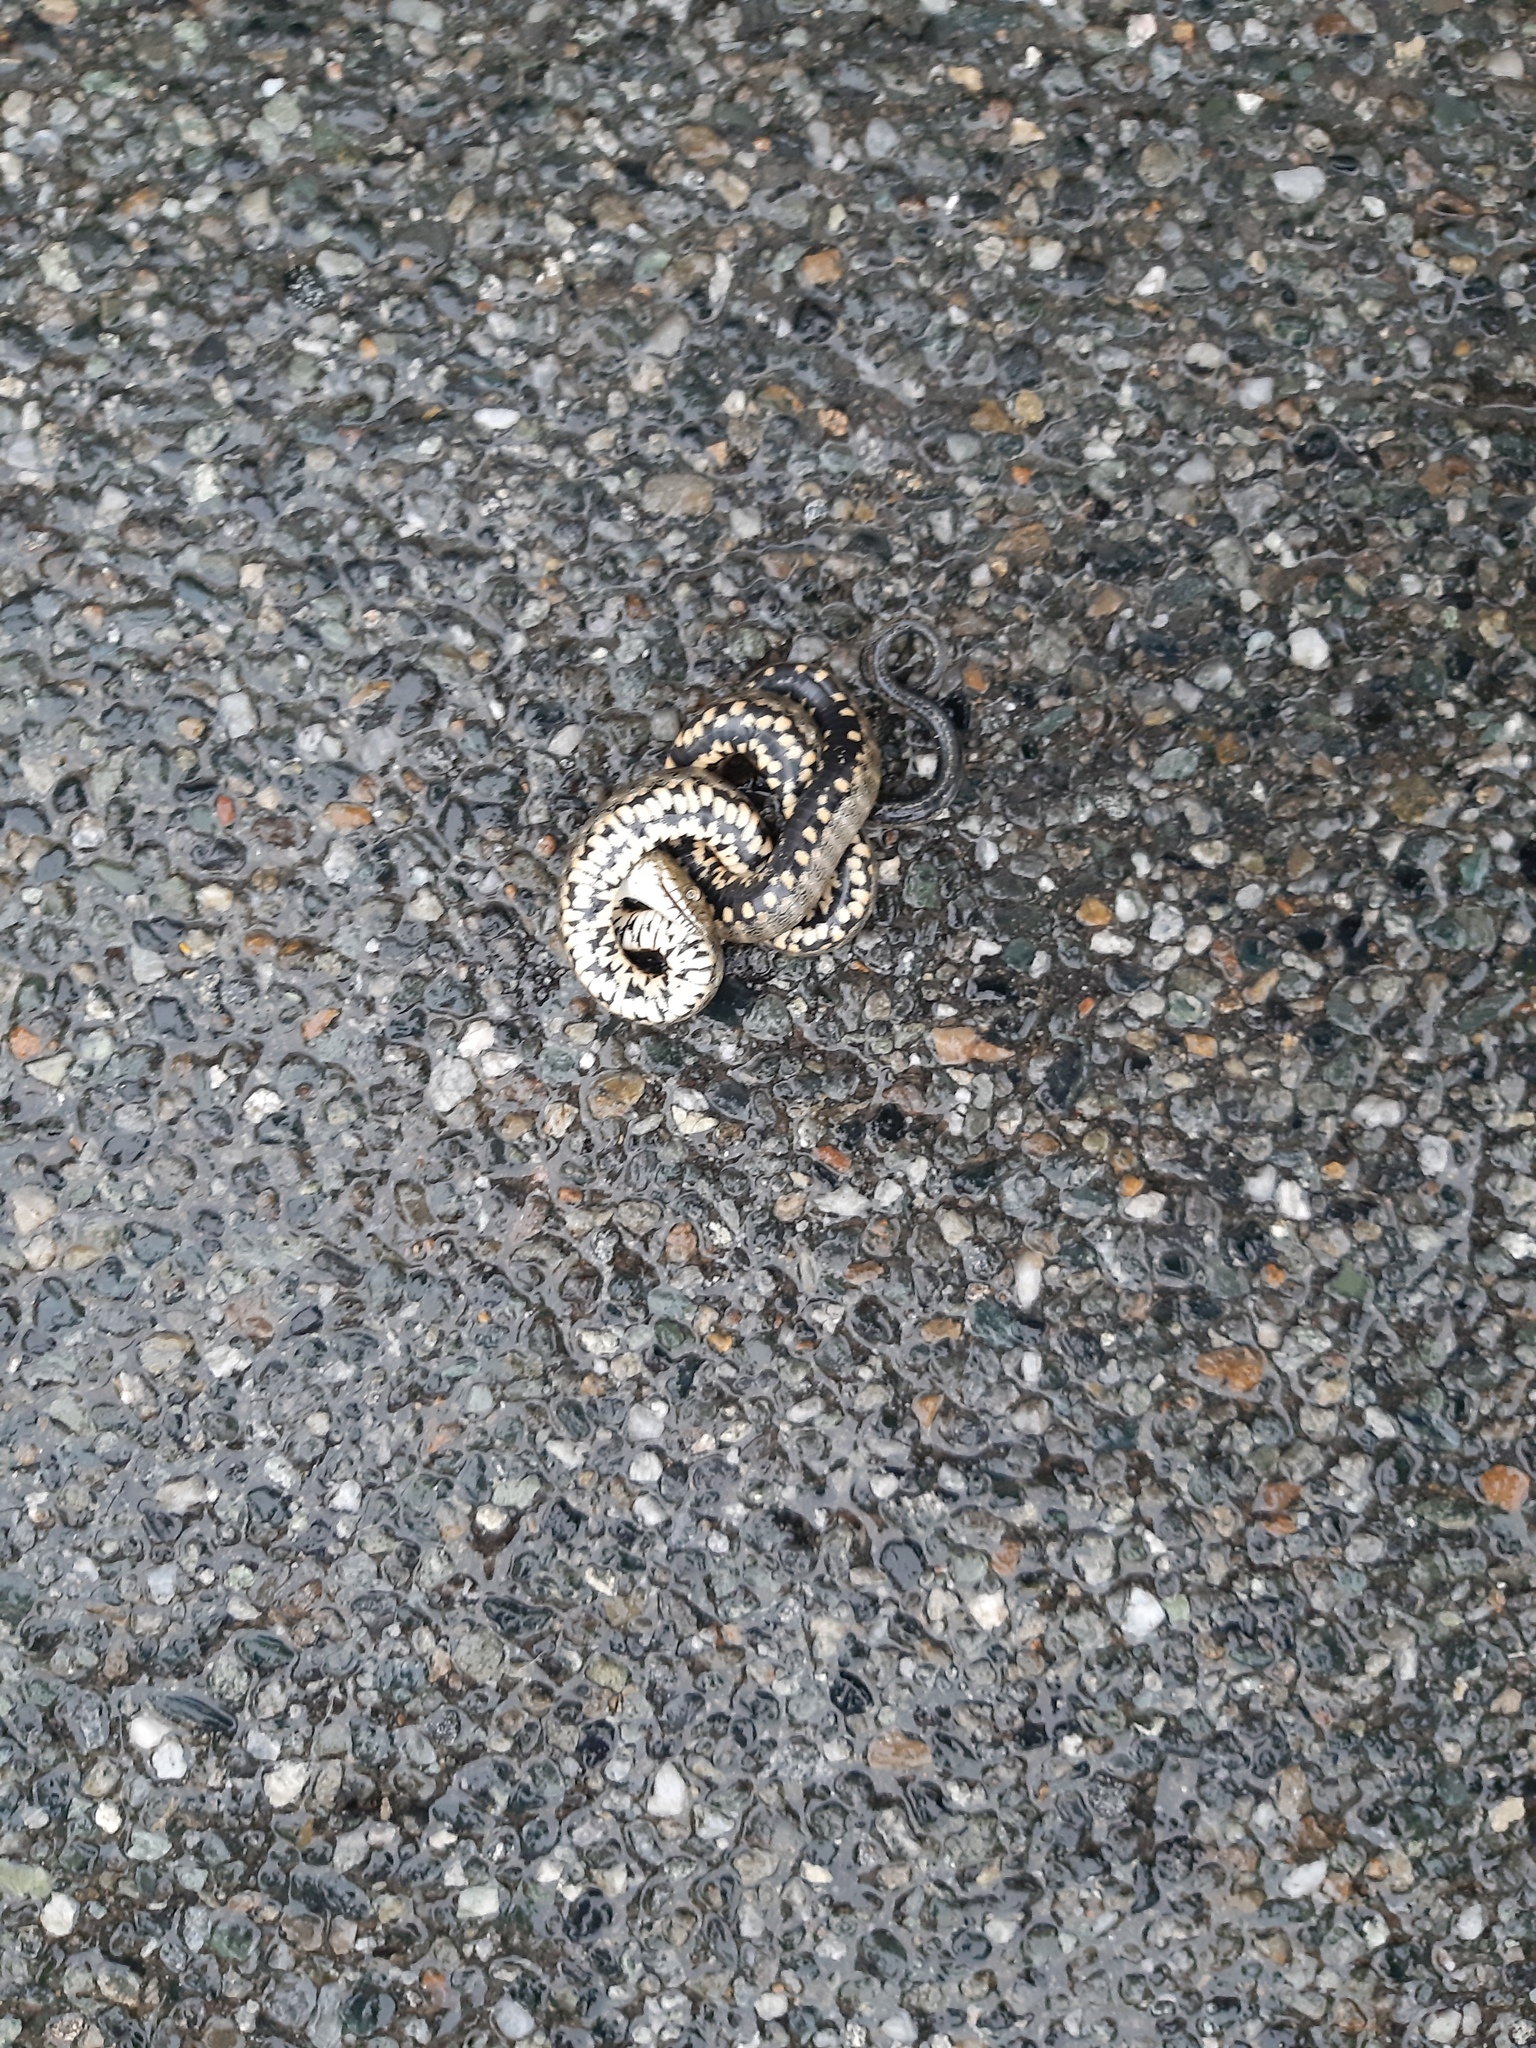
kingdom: Animalia
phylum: Chordata
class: Squamata
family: Colubridae
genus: Natrix
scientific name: Natrix tessellata
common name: Dice snake
